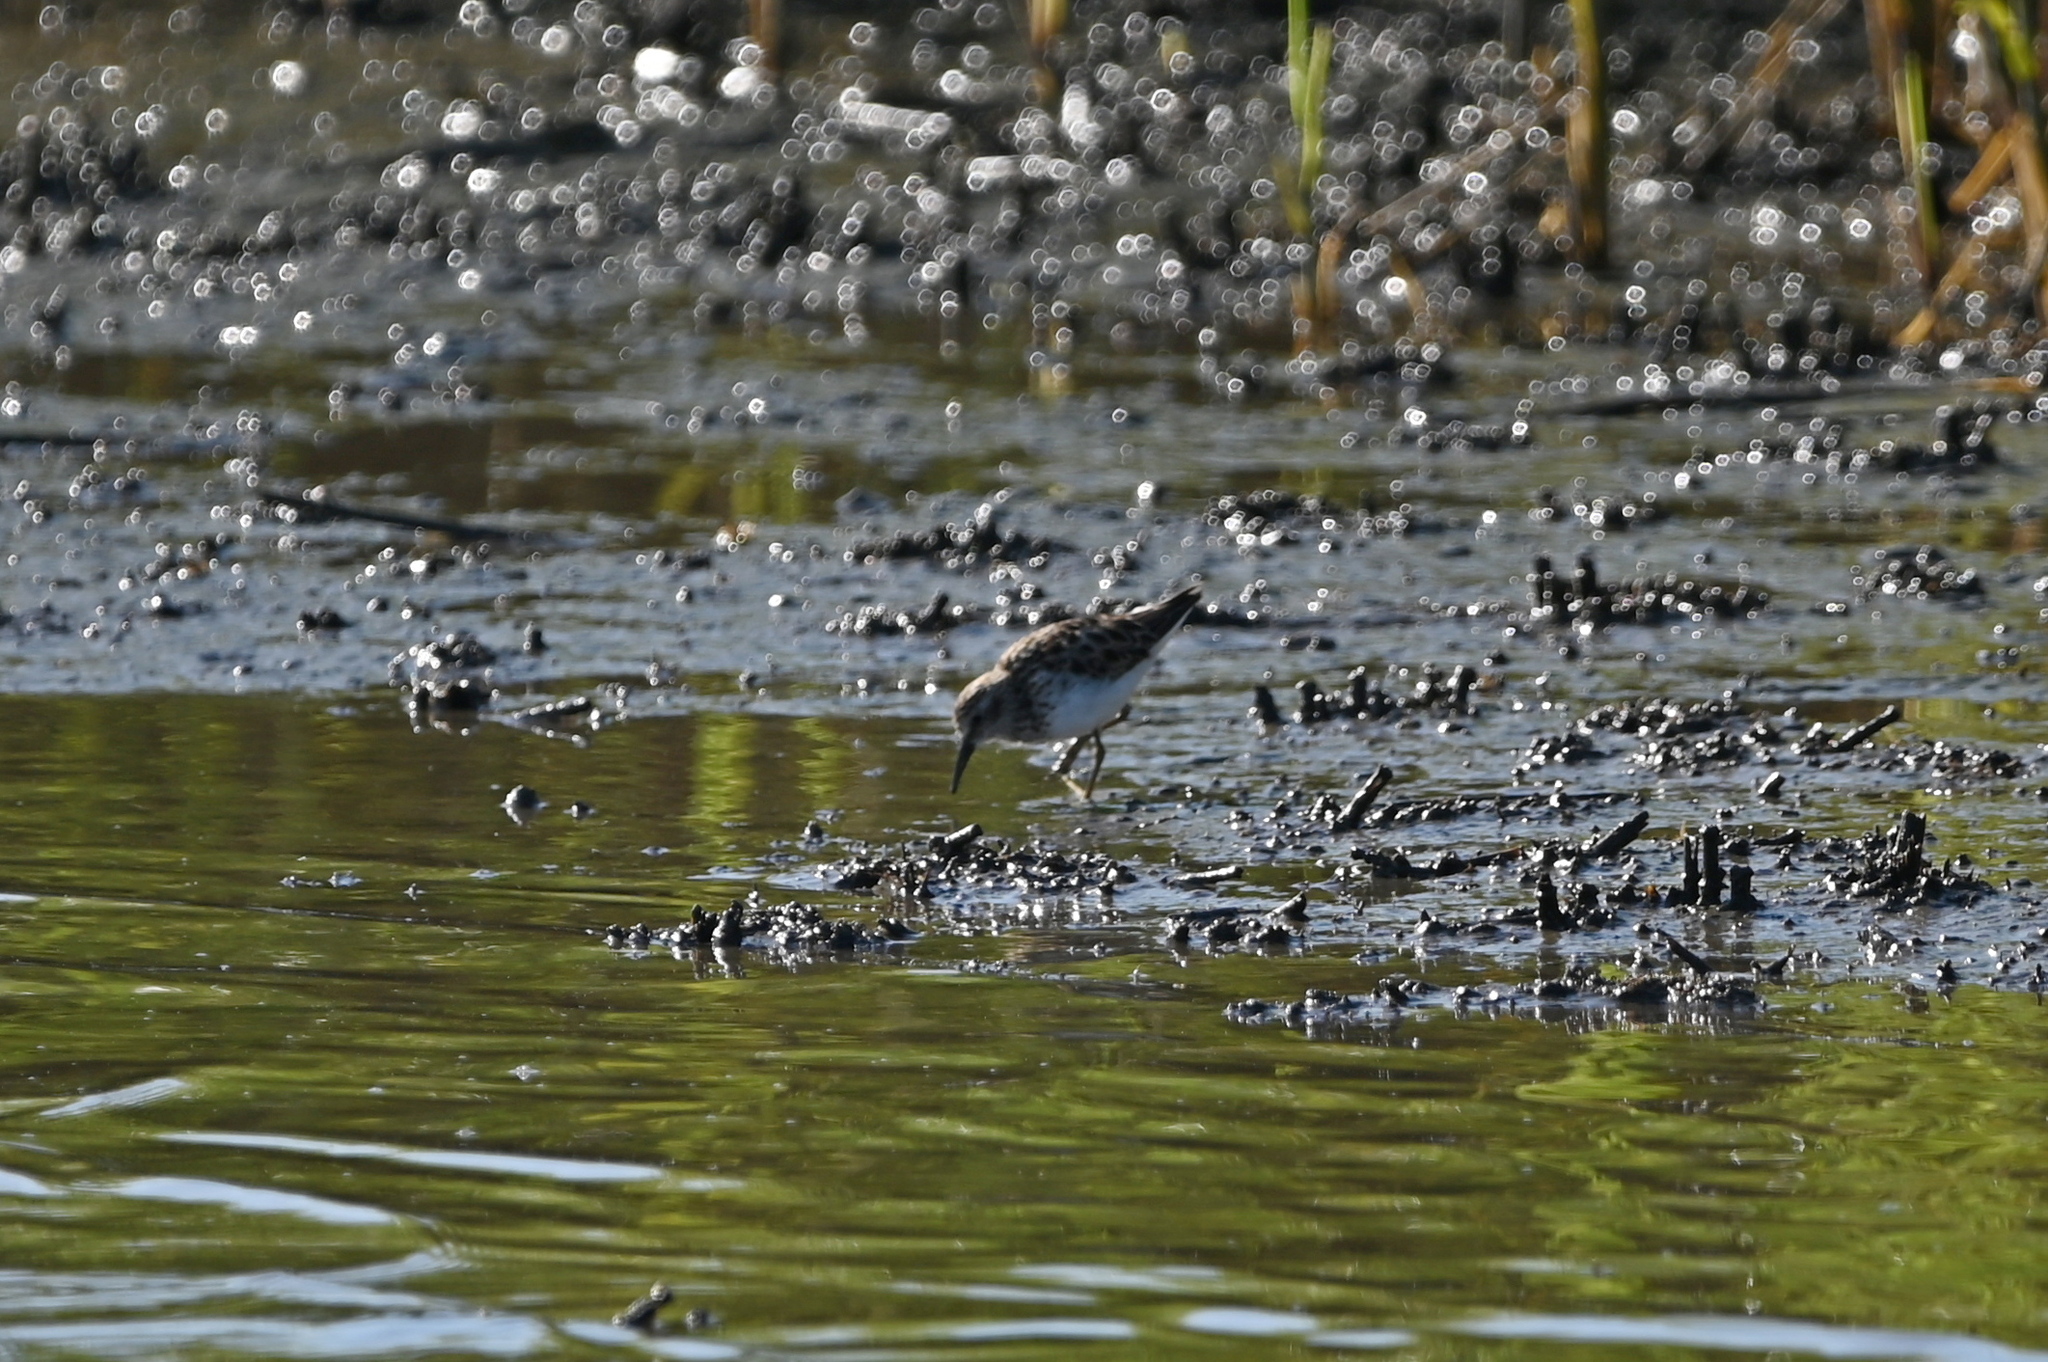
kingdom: Animalia
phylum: Chordata
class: Aves
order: Charadriiformes
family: Scolopacidae
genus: Calidris
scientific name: Calidris minutilla
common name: Least sandpiper
